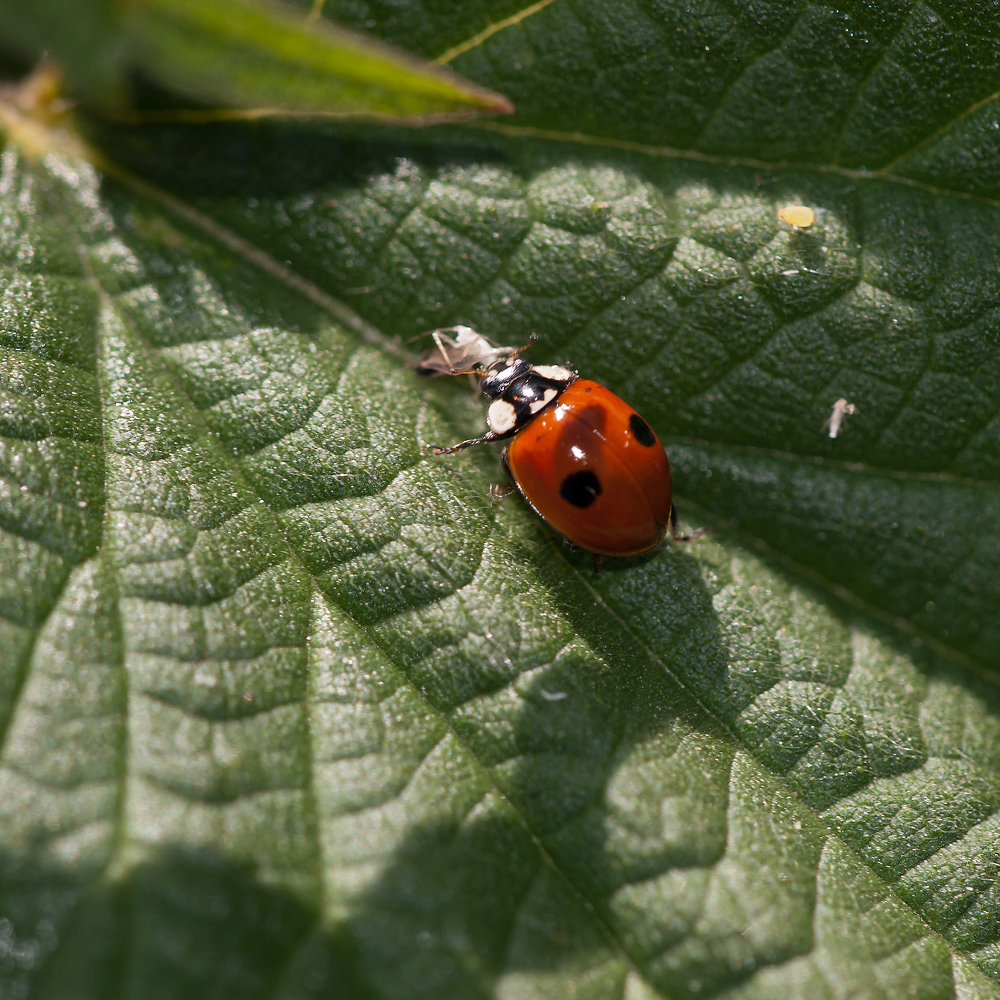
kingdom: Animalia
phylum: Arthropoda
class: Insecta
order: Coleoptera
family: Coccinellidae
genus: Adalia
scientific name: Adalia bipunctata
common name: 2-spot ladybird
